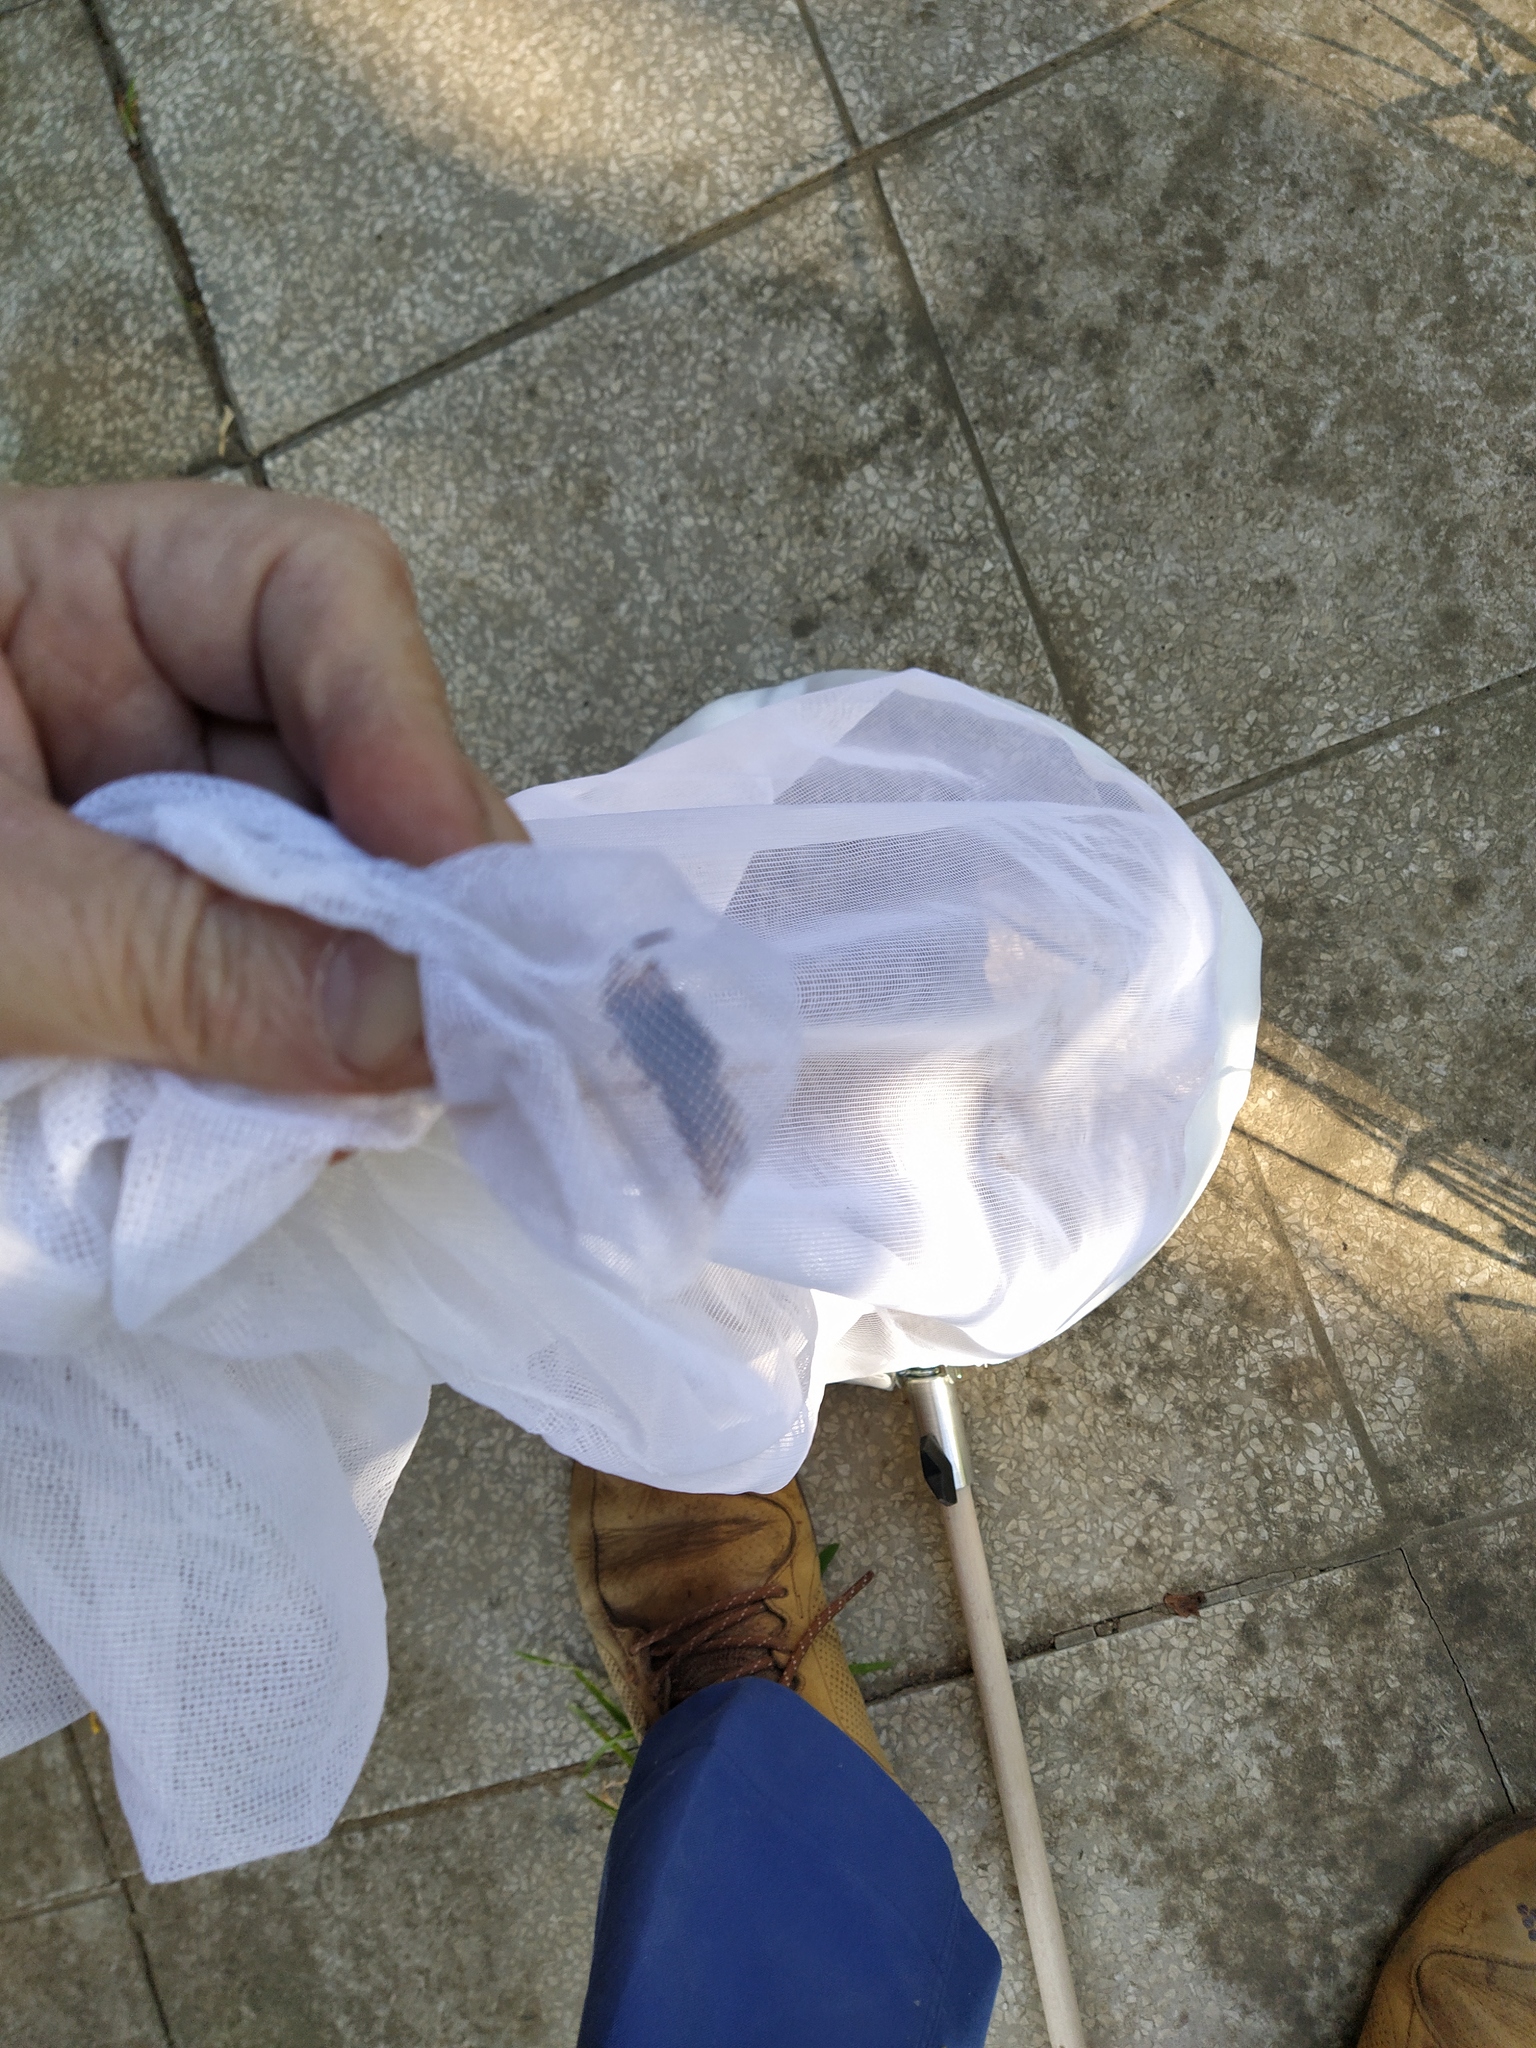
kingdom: Animalia
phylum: Arthropoda
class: Insecta
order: Hymenoptera
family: Vespidae
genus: Vespa
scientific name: Vespa velutina
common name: Asian hornet
